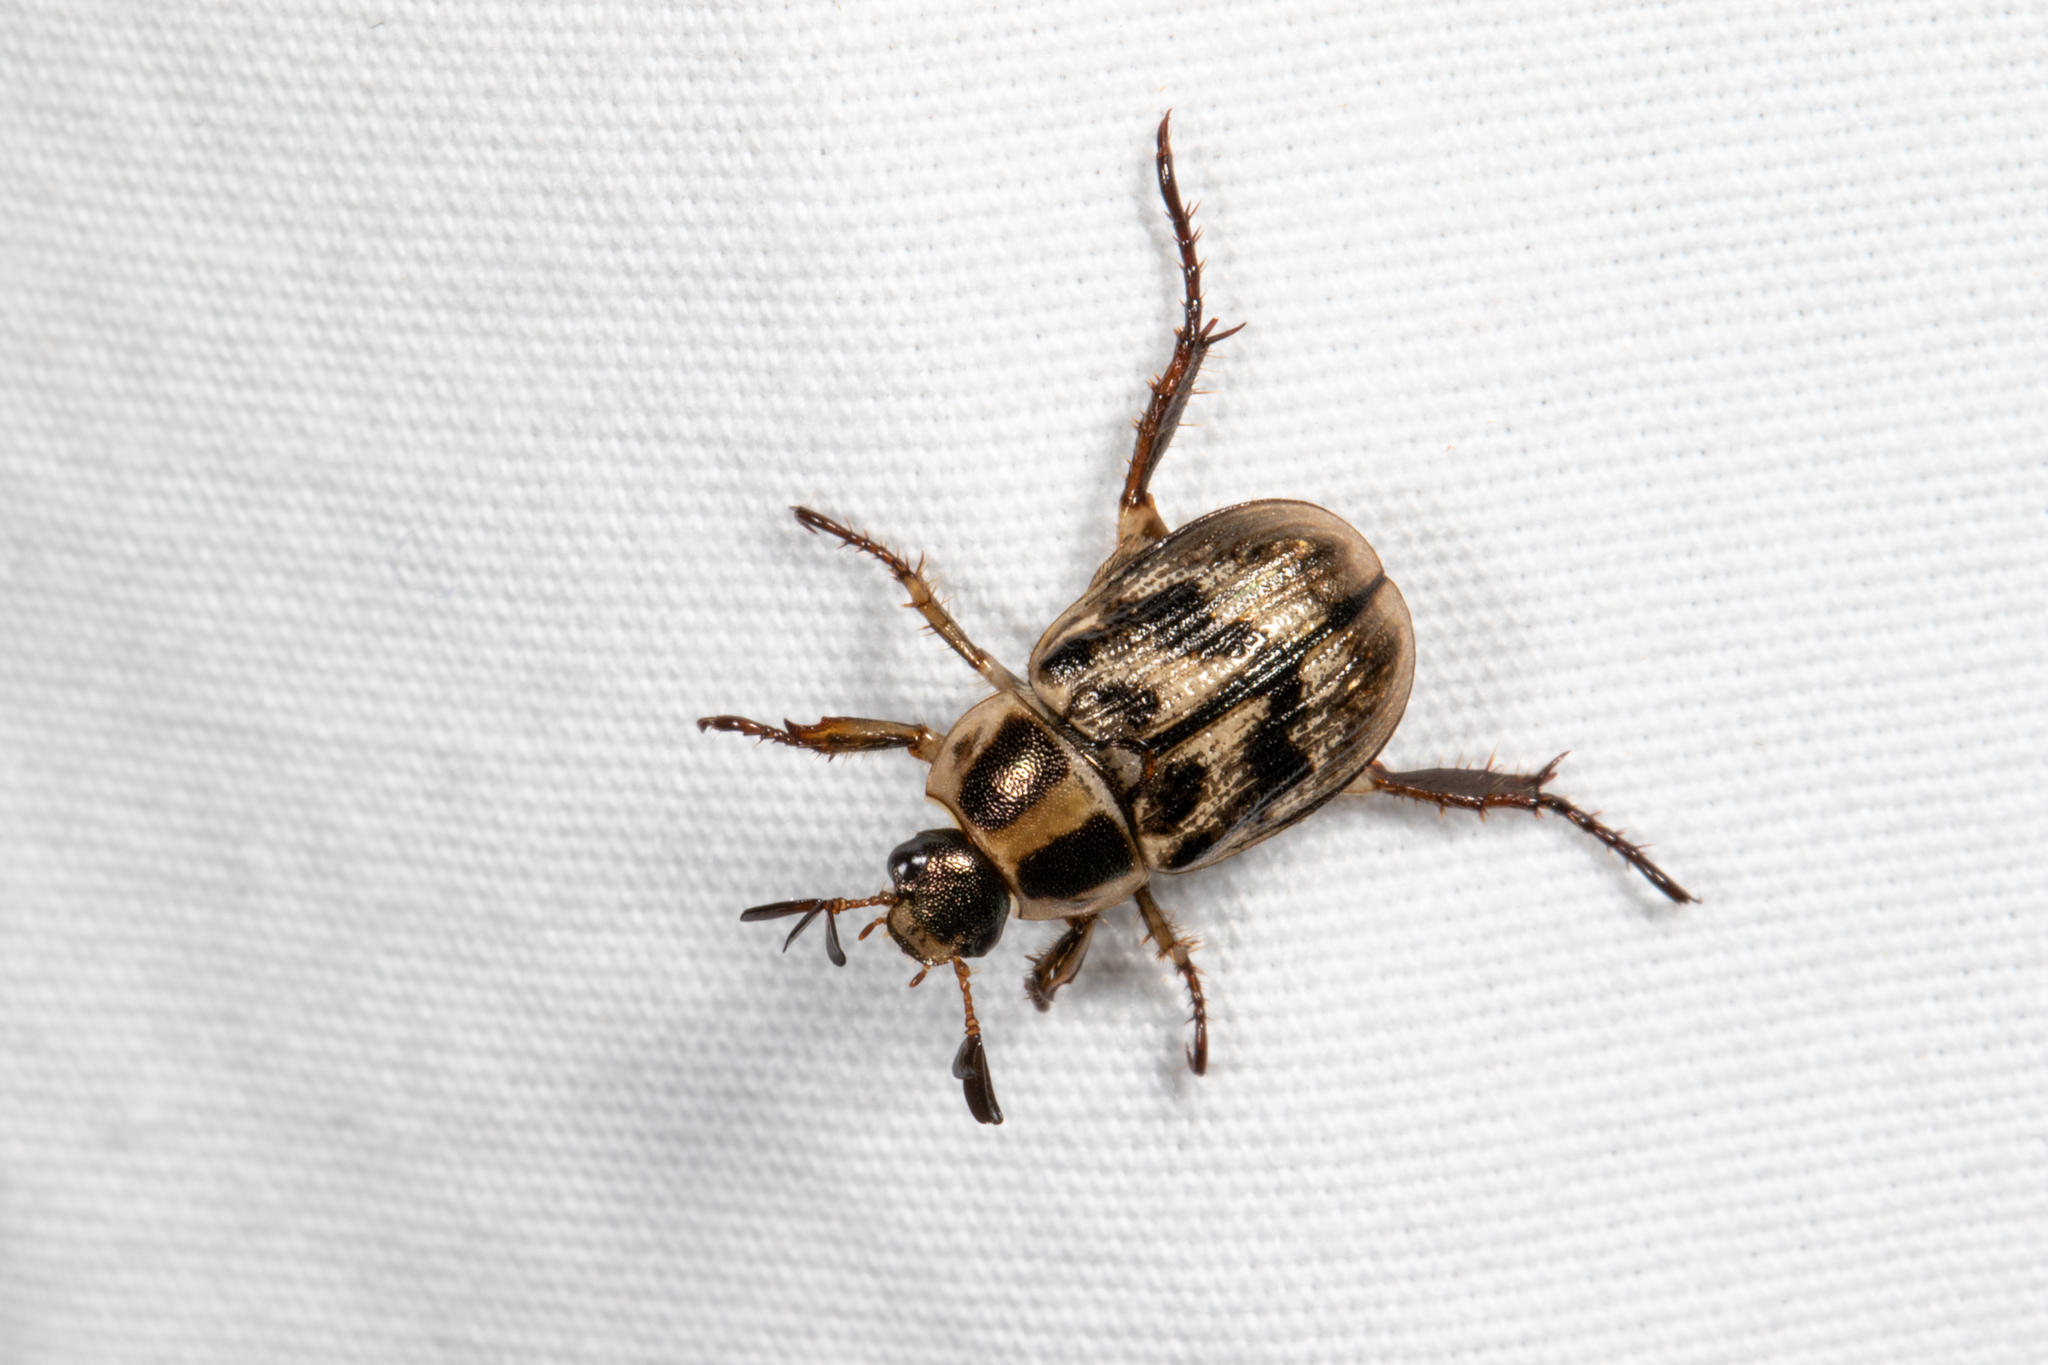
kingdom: Animalia
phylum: Arthropoda
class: Insecta
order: Coleoptera
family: Scarabaeidae
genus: Exomala
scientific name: Exomala orientalis
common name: Oriental beetle
